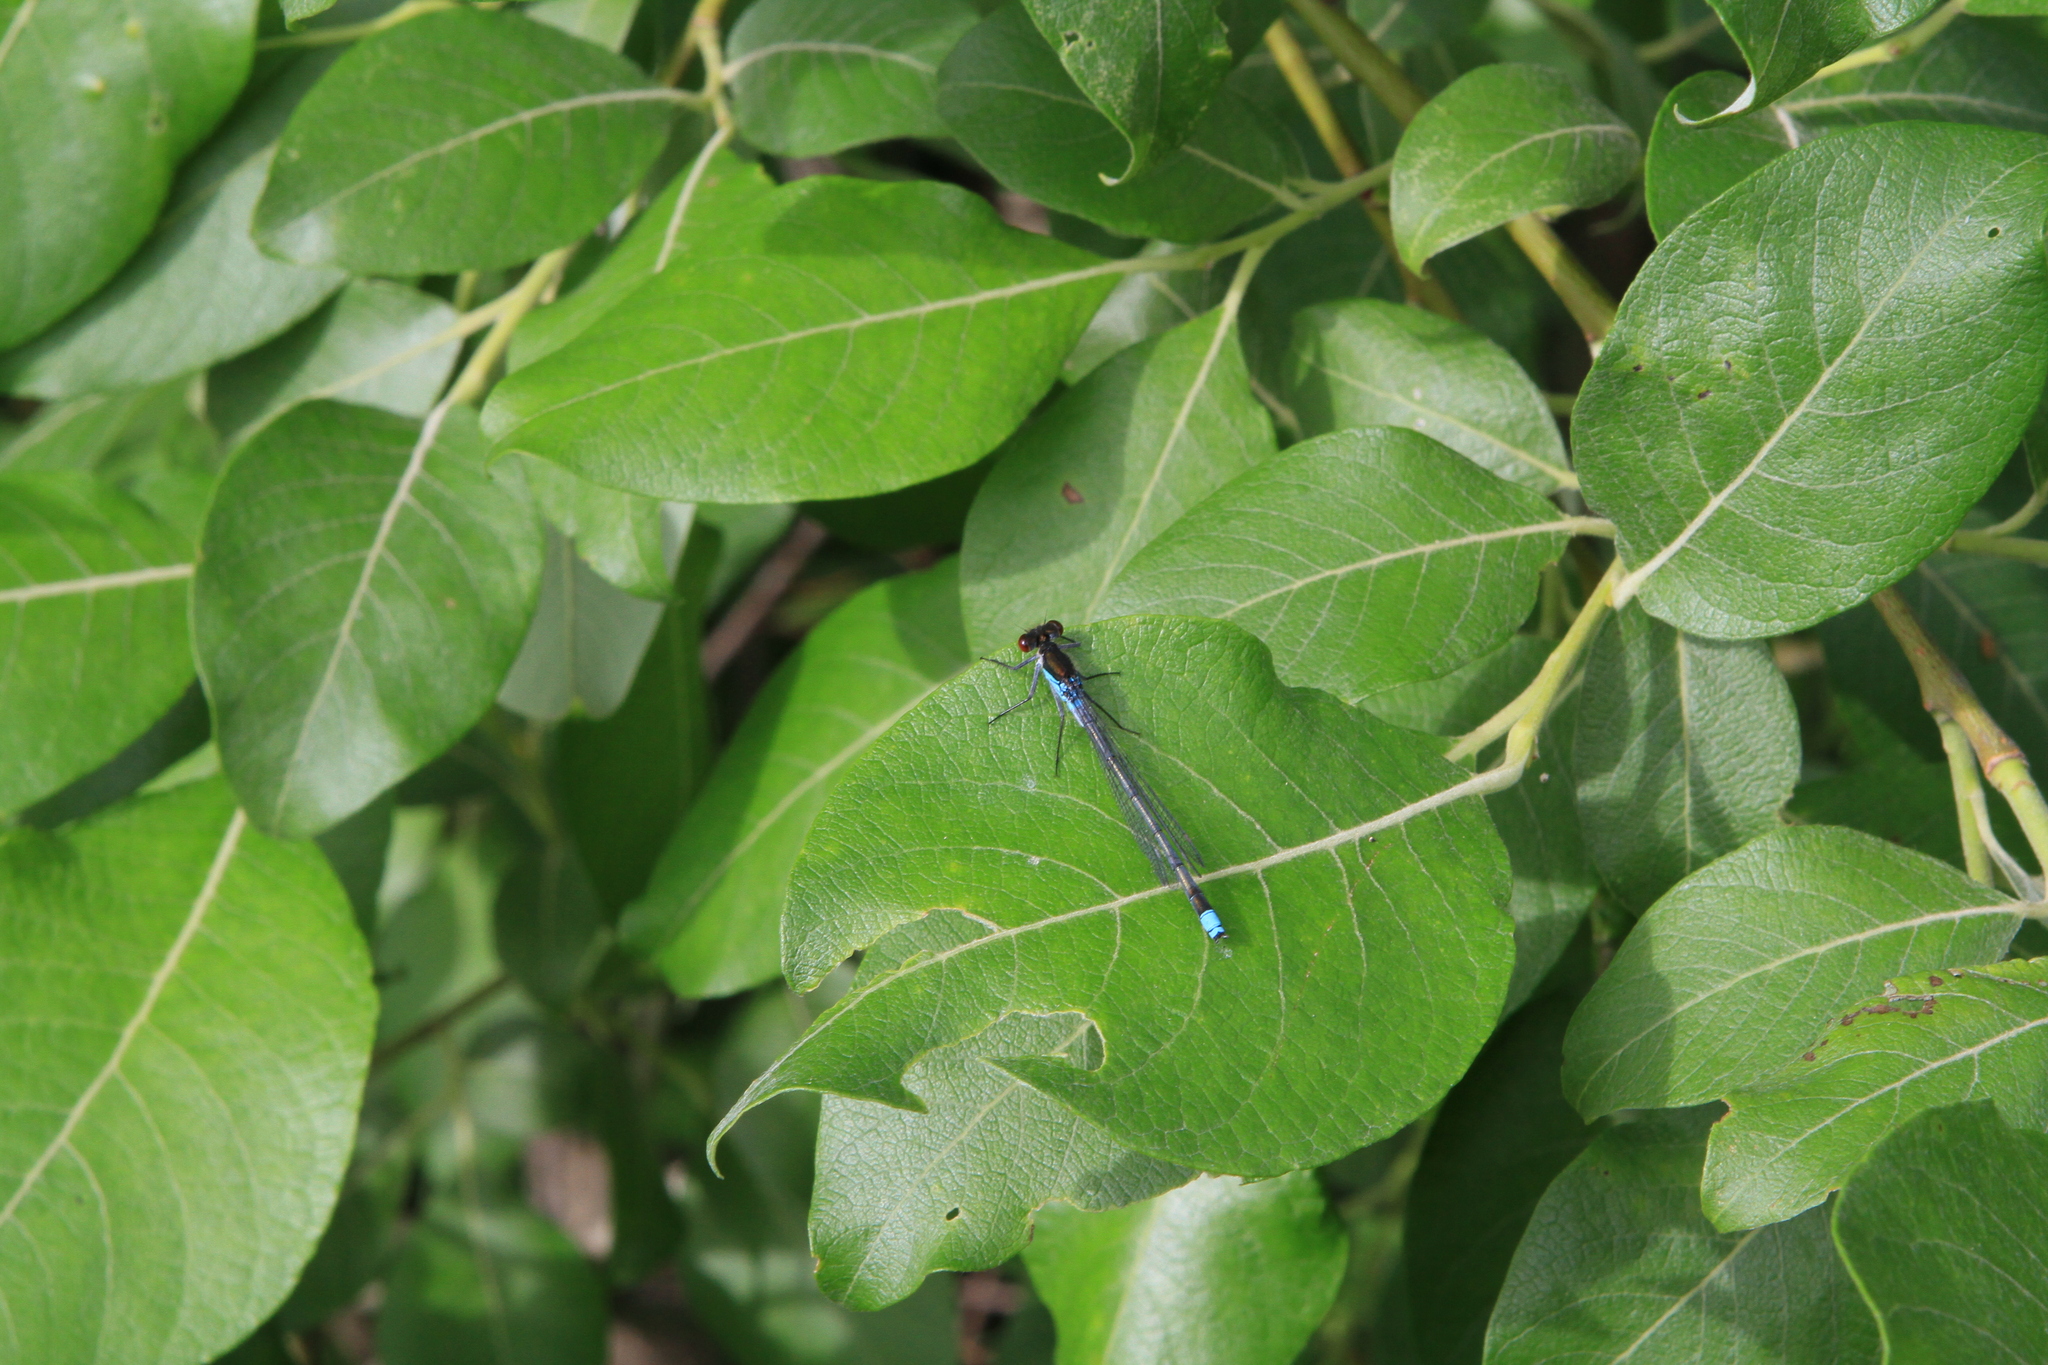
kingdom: Animalia
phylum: Arthropoda
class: Insecta
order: Odonata
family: Coenagrionidae
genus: Erythromma
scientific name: Erythromma najas
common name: Red-eyed damselfly
